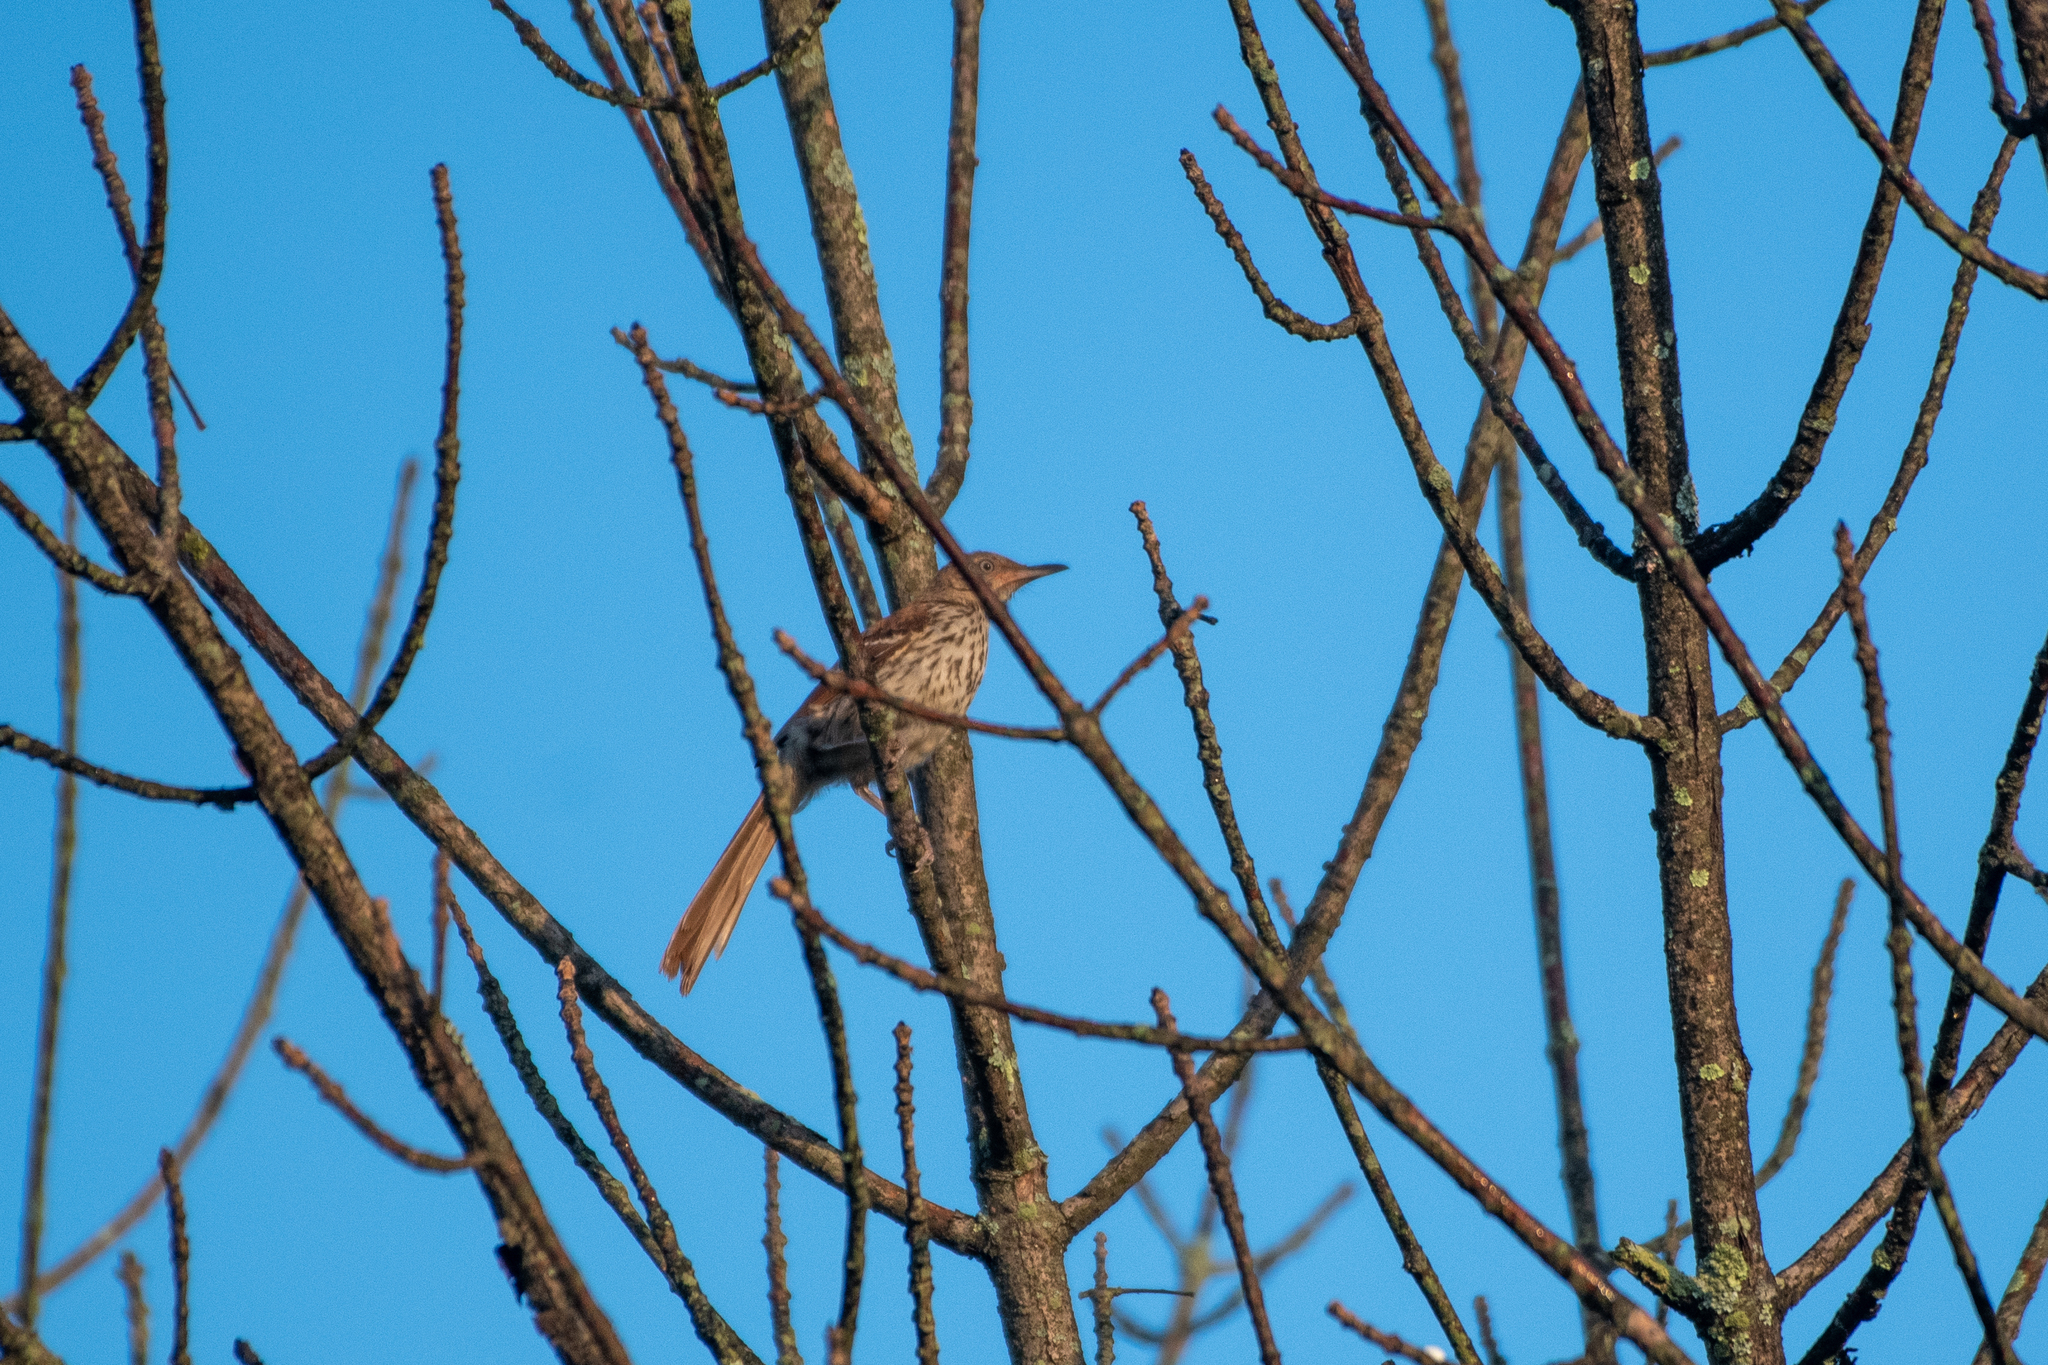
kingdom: Animalia
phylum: Chordata
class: Aves
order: Passeriformes
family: Mimidae
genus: Toxostoma
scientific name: Toxostoma rufum
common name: Brown thrasher
